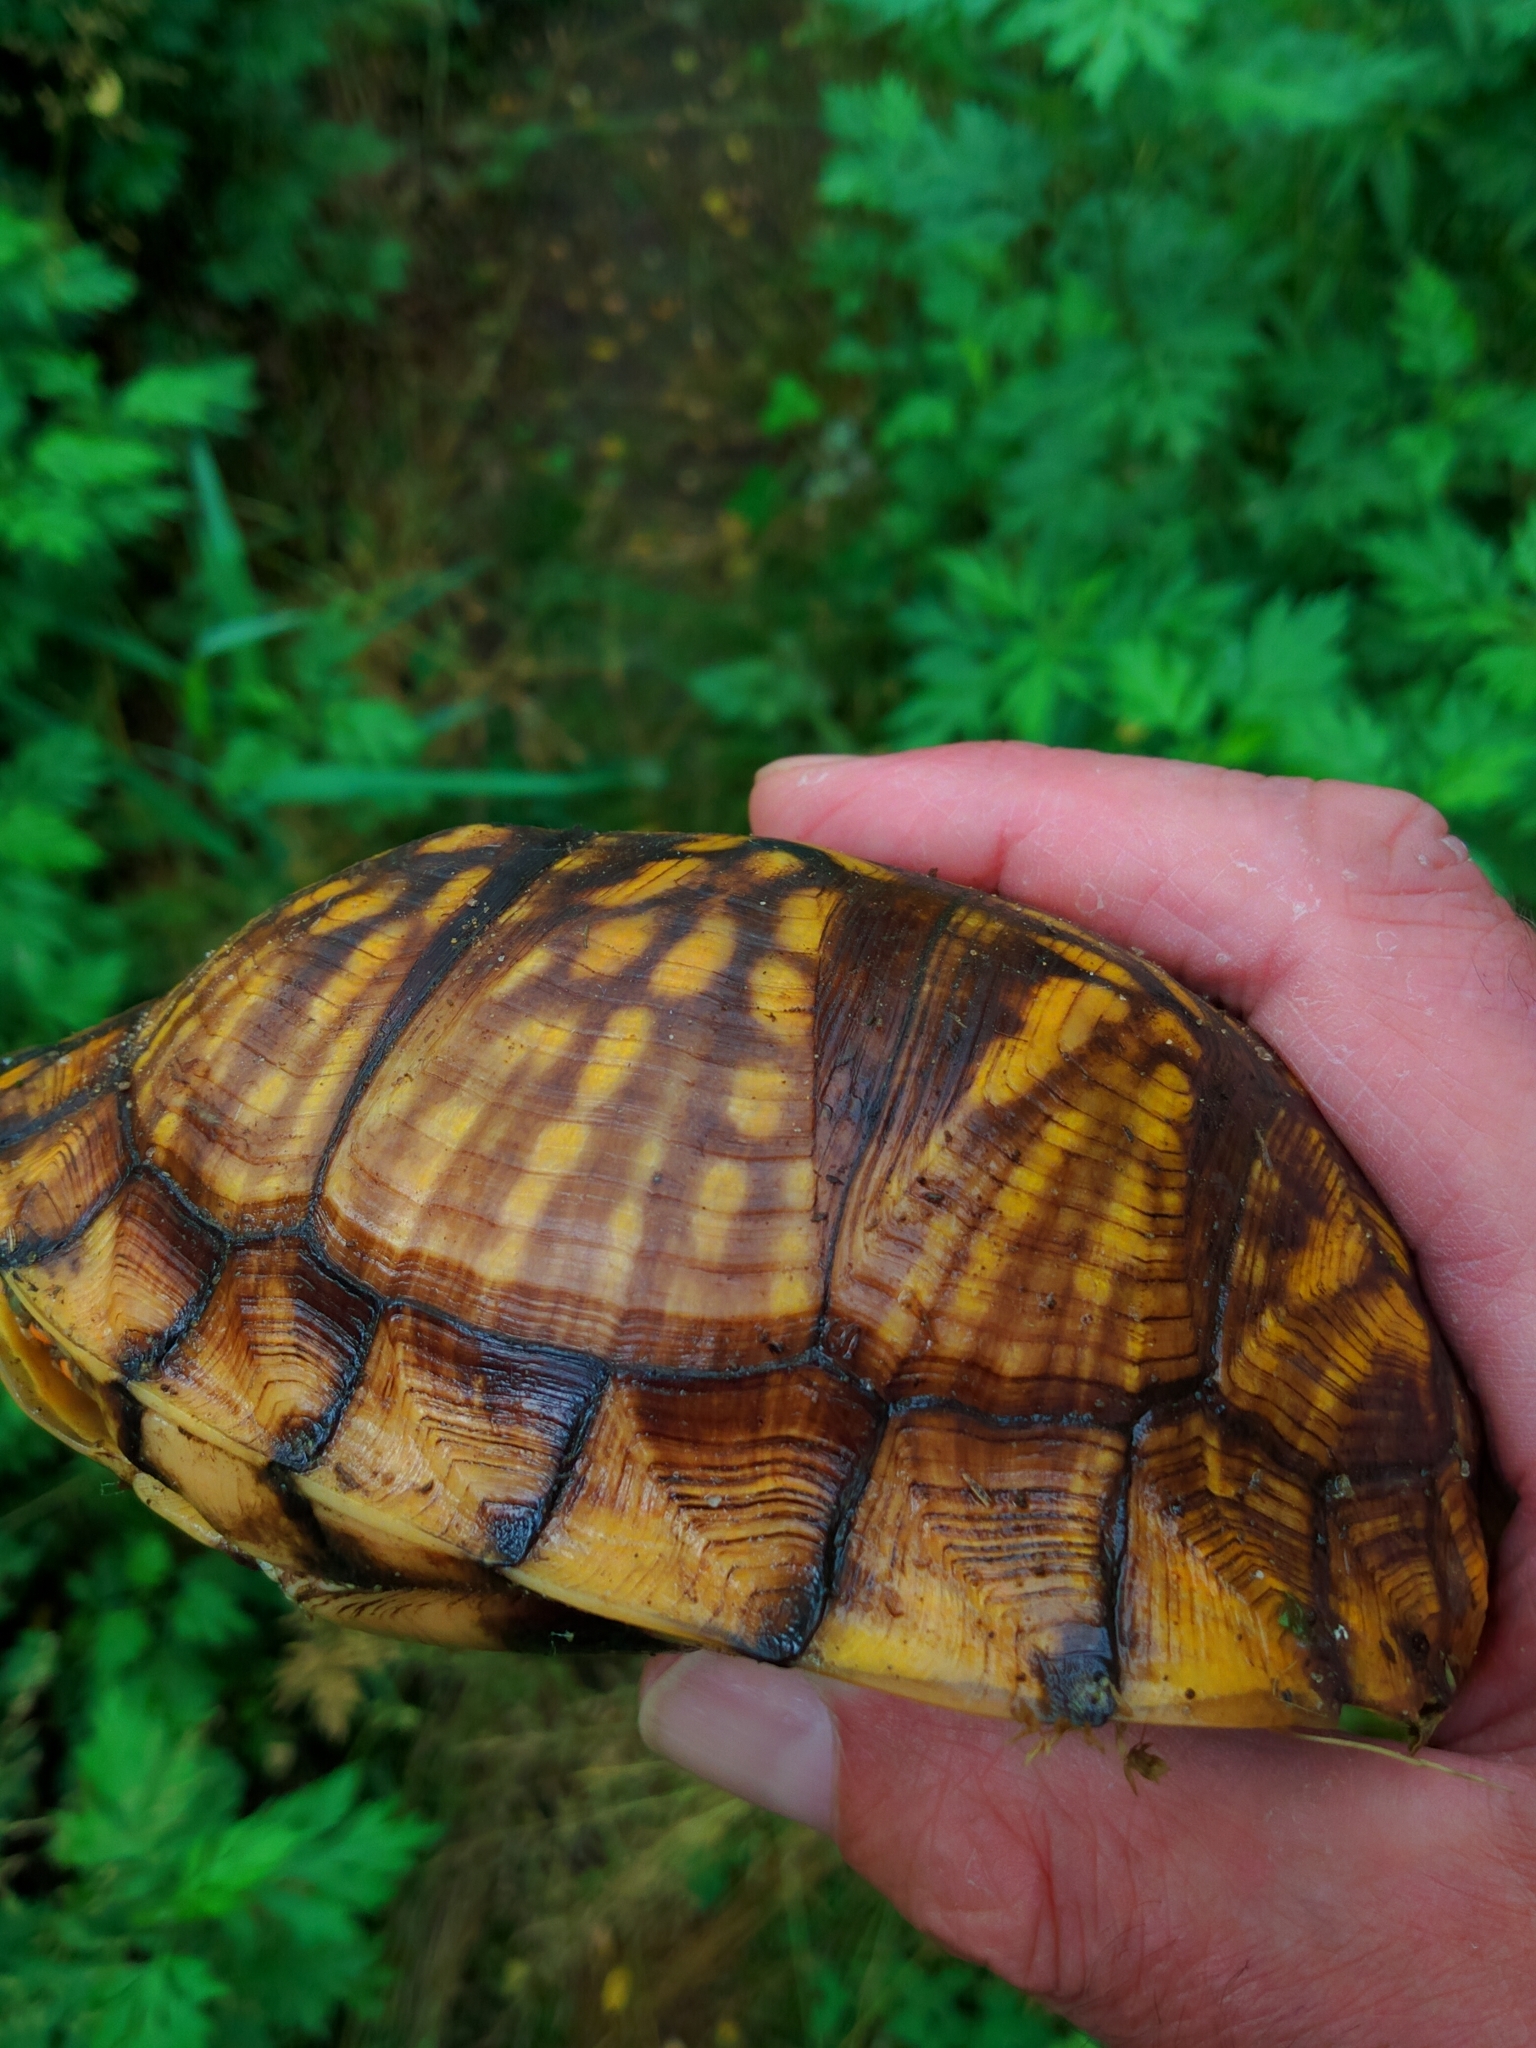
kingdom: Animalia
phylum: Chordata
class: Testudines
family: Emydidae
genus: Terrapene
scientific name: Terrapene carolina
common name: Common box turtle
